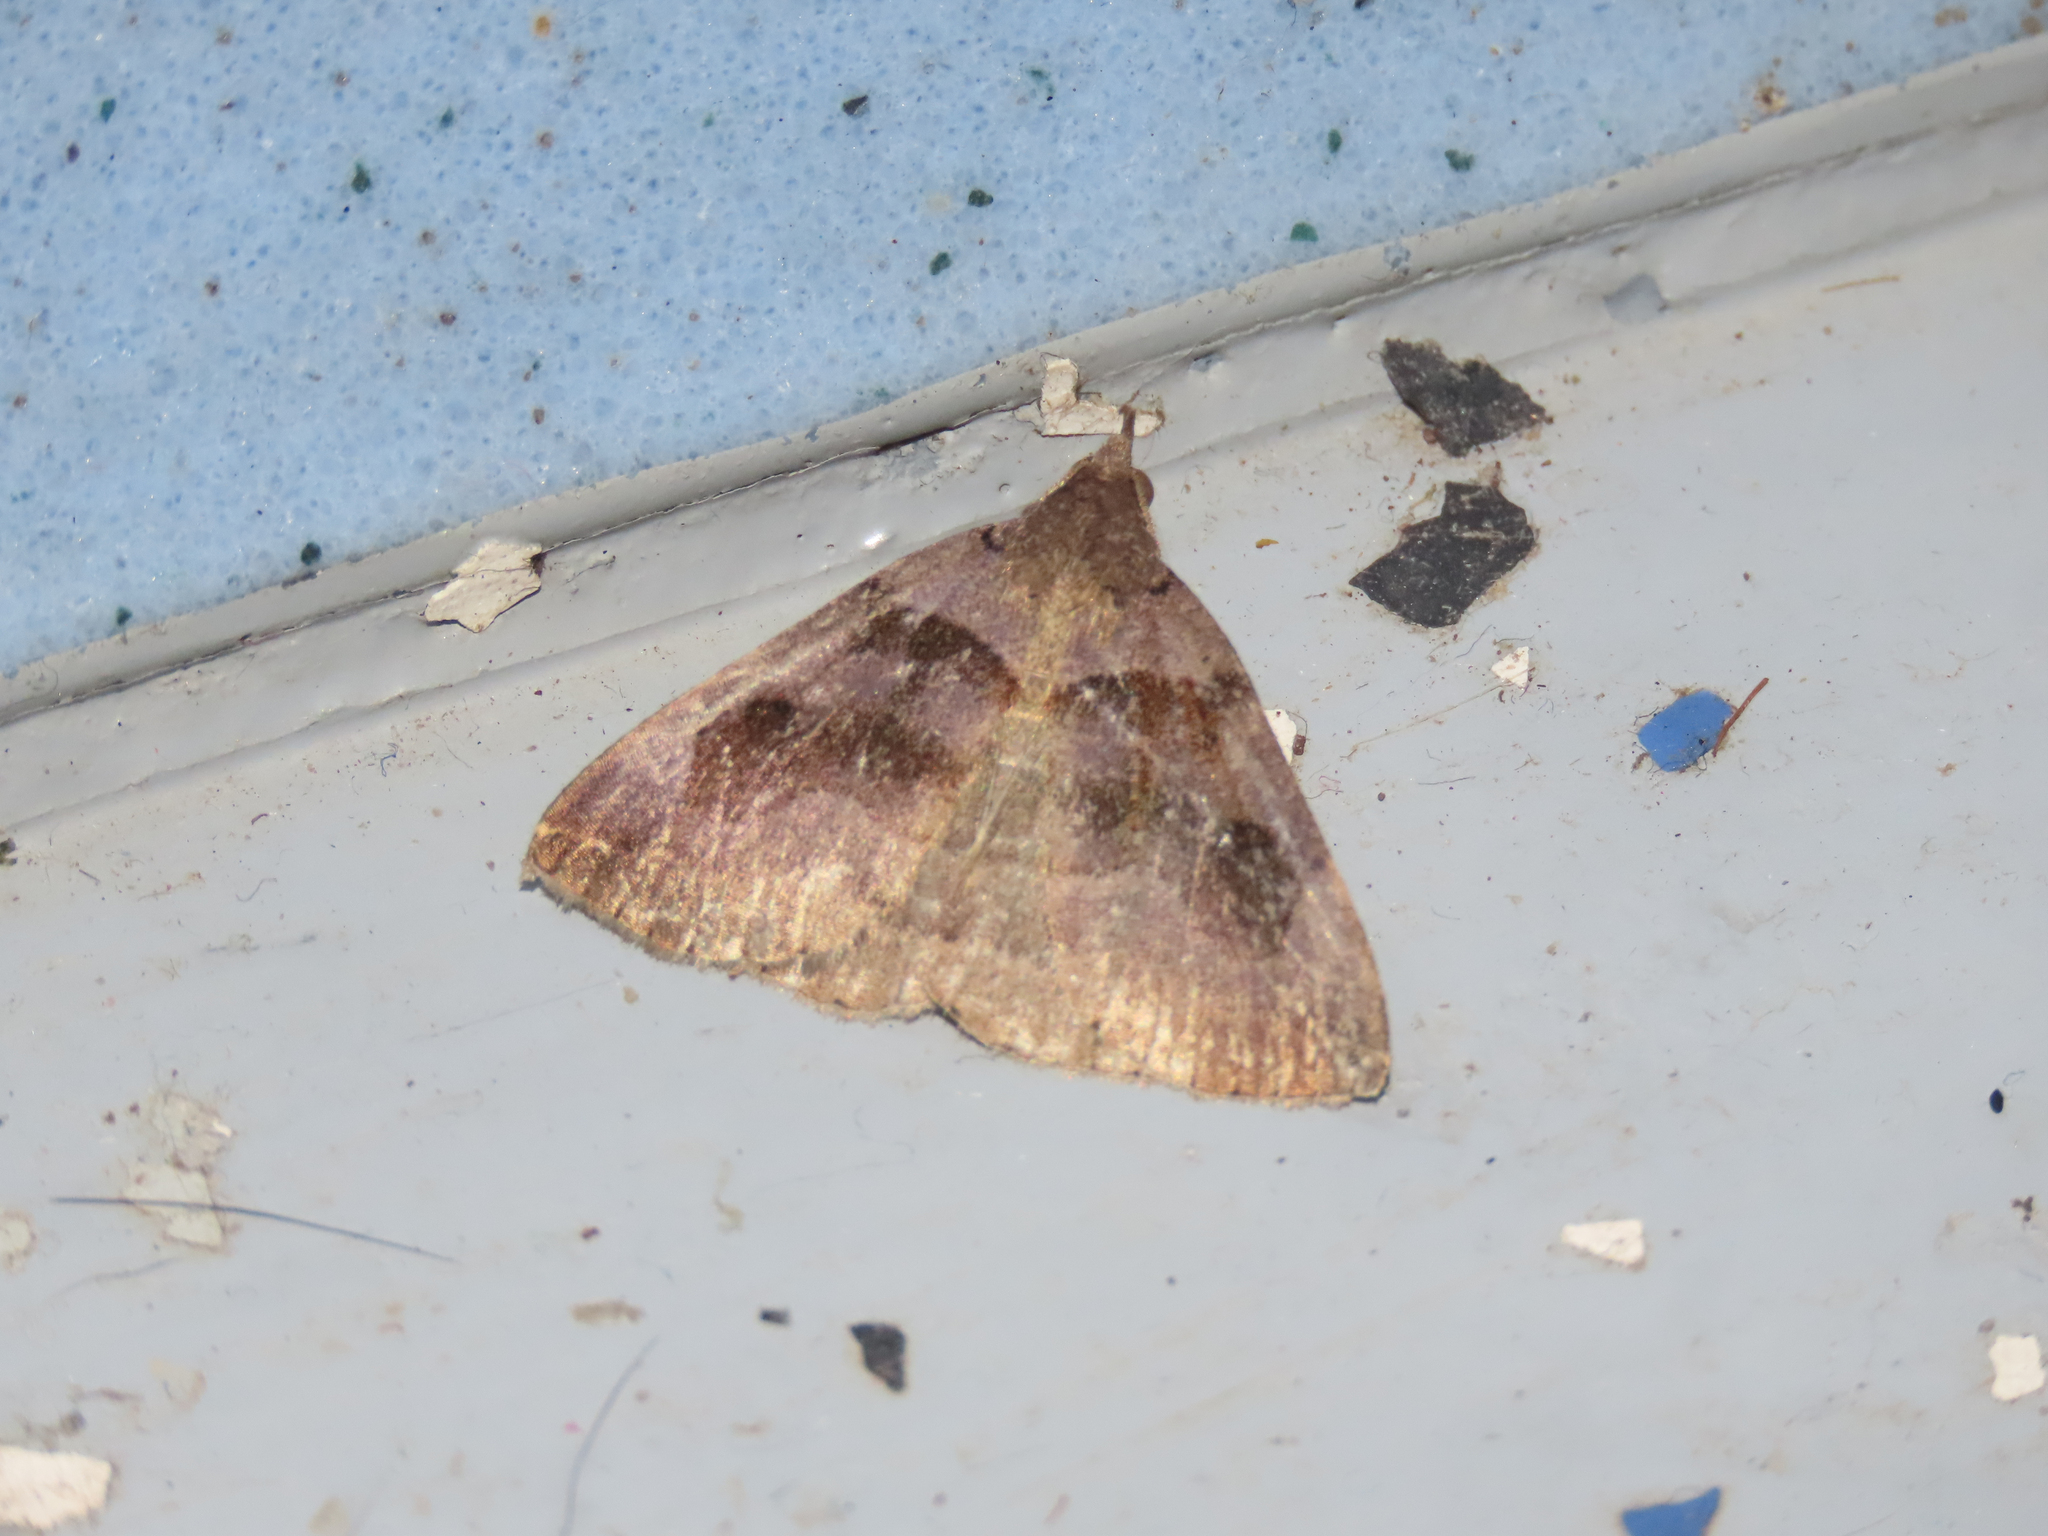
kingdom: Animalia
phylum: Arthropoda
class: Insecta
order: Lepidoptera
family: Erebidae
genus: Zanclognatha
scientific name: Zanclognatha laevigata
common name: Variable fan-foot
